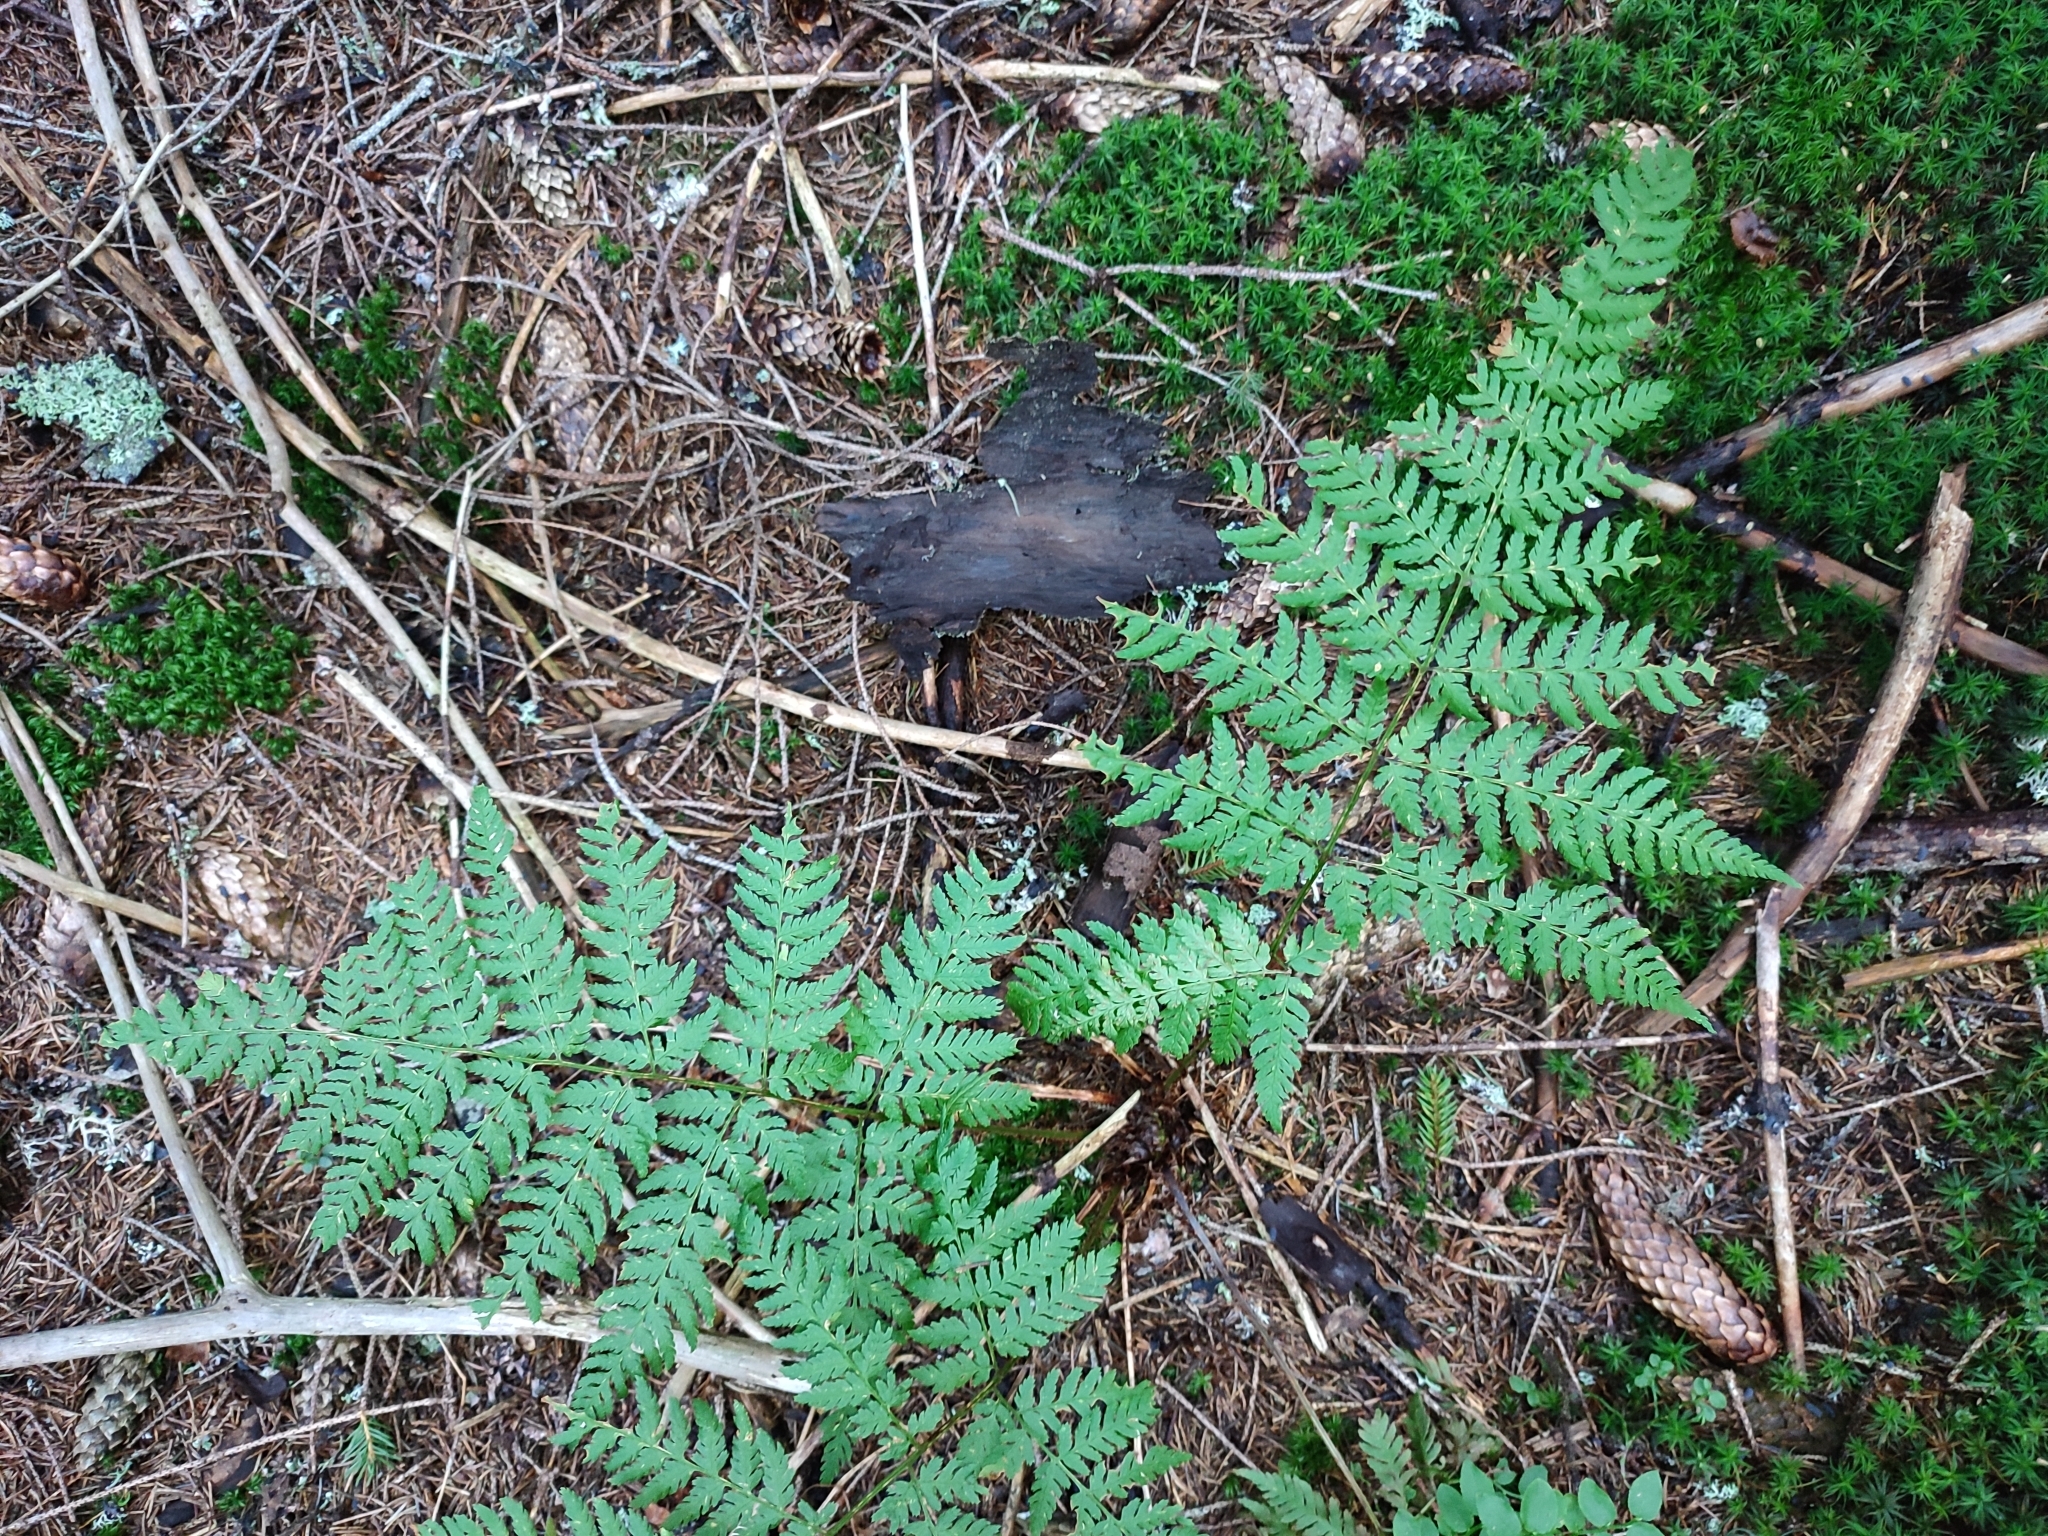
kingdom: Plantae
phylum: Tracheophyta
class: Polypodiopsida
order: Polypodiales
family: Dryopteridaceae
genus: Dryopteris
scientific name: Dryopteris expansa
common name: Northern buckler fern
